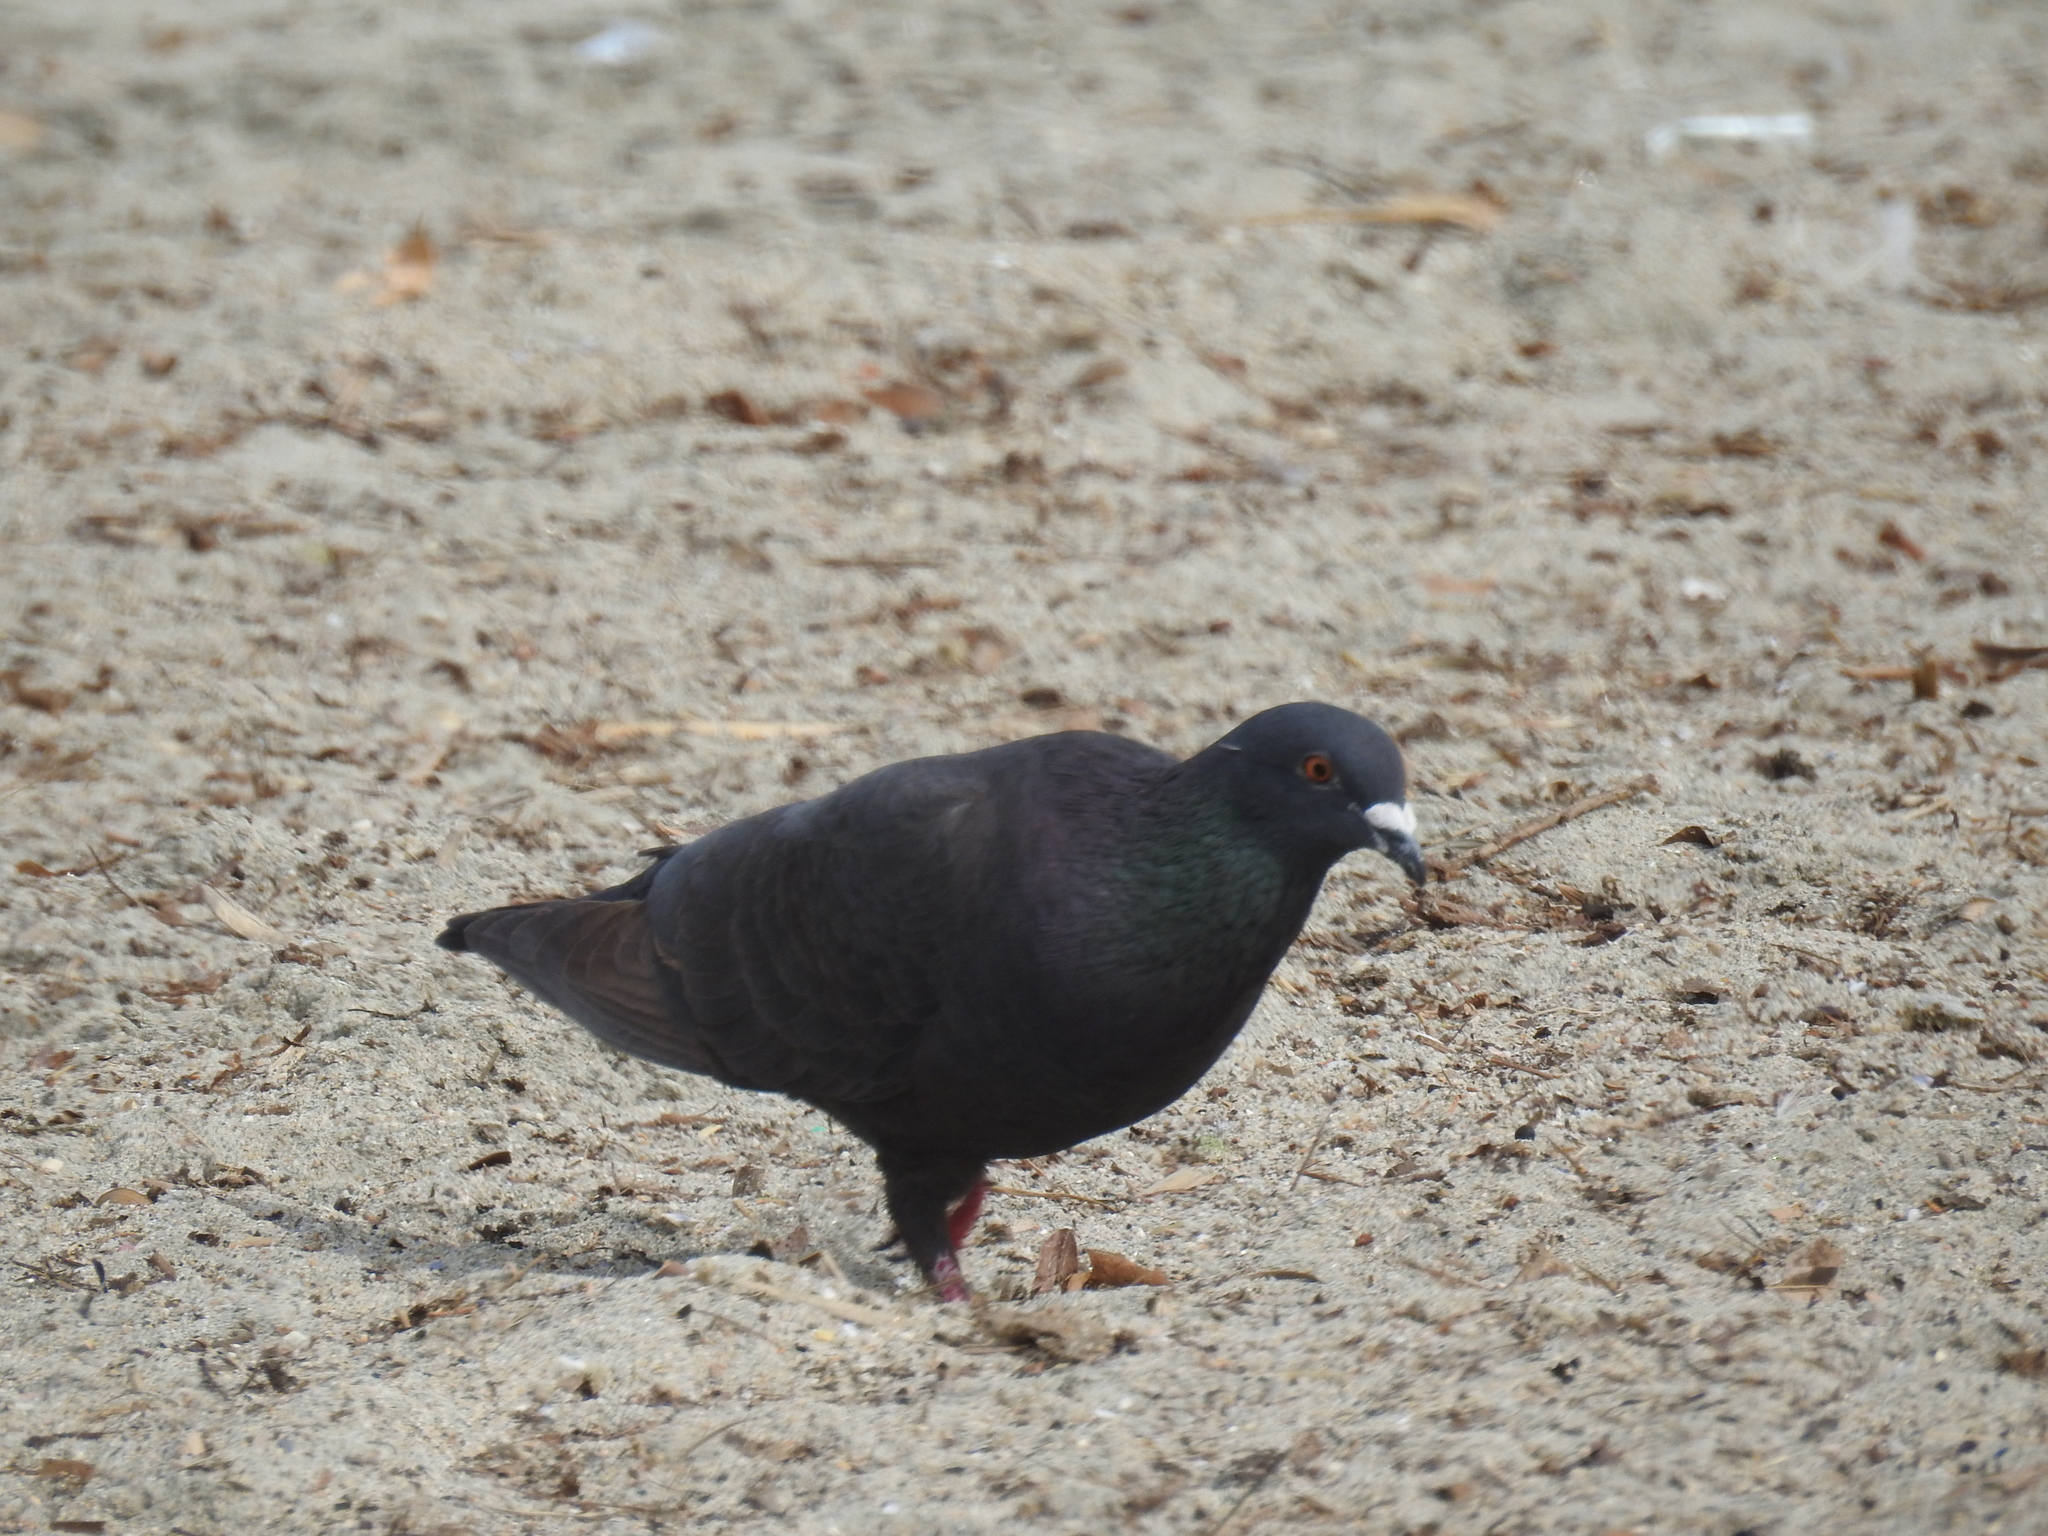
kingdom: Animalia
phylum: Chordata
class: Aves
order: Columbiformes
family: Columbidae
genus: Columba
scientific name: Columba livia
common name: Rock pigeon
